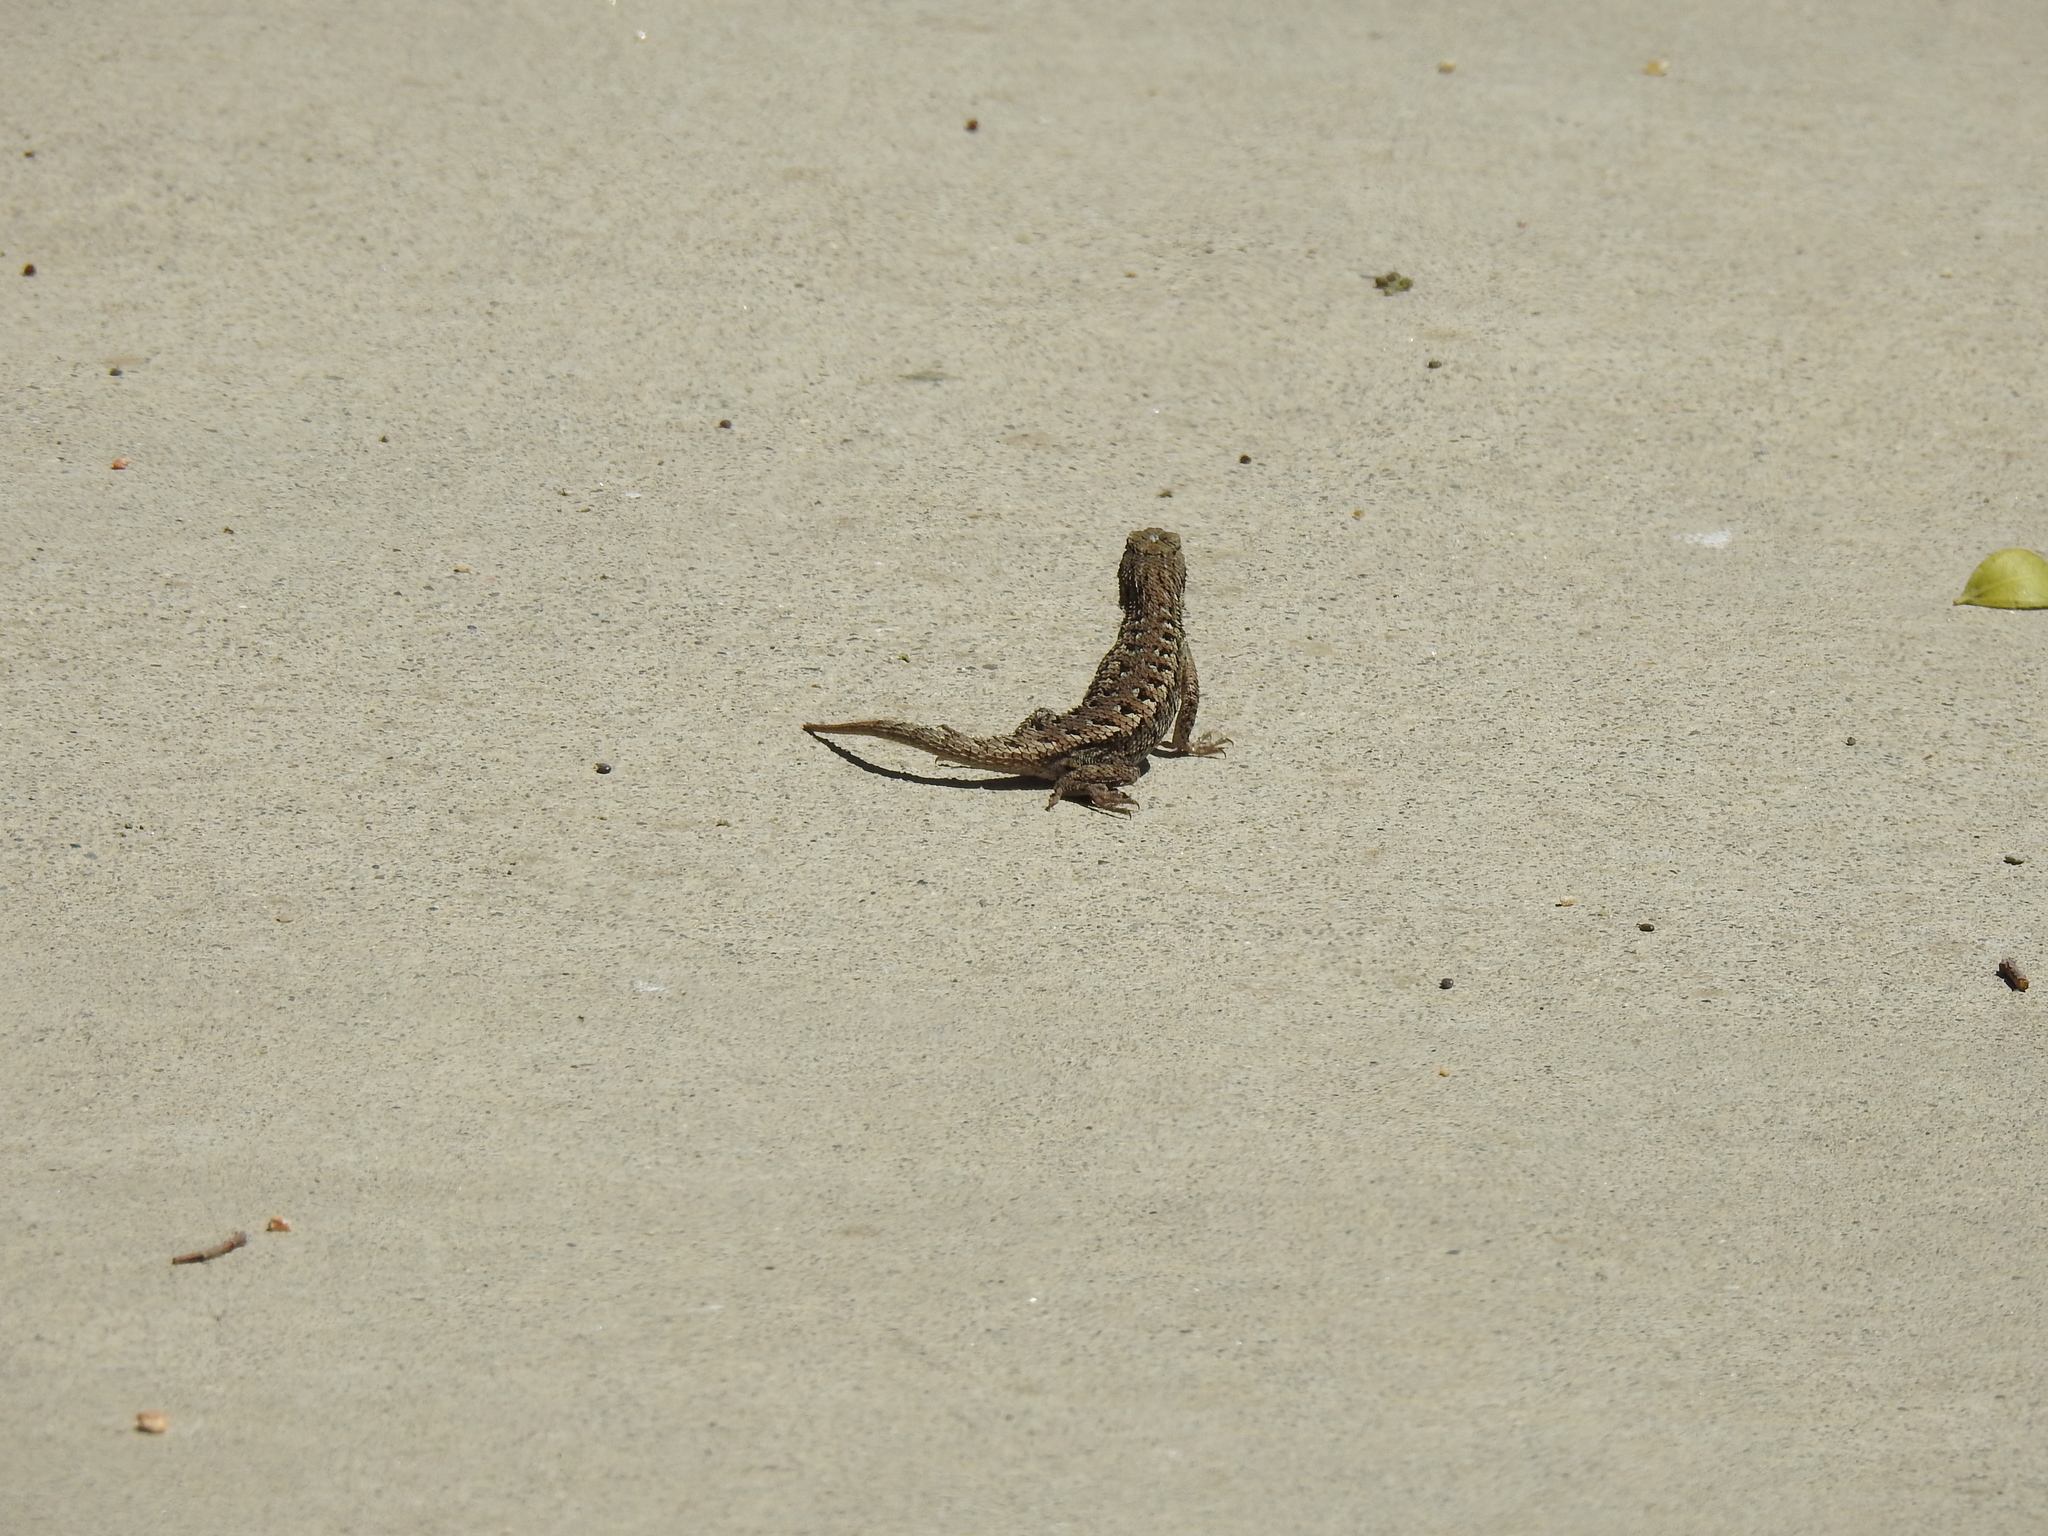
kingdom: Animalia
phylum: Chordata
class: Squamata
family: Phrynosomatidae
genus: Sceloporus
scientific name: Sceloporus occidentalis
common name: Western fence lizard
